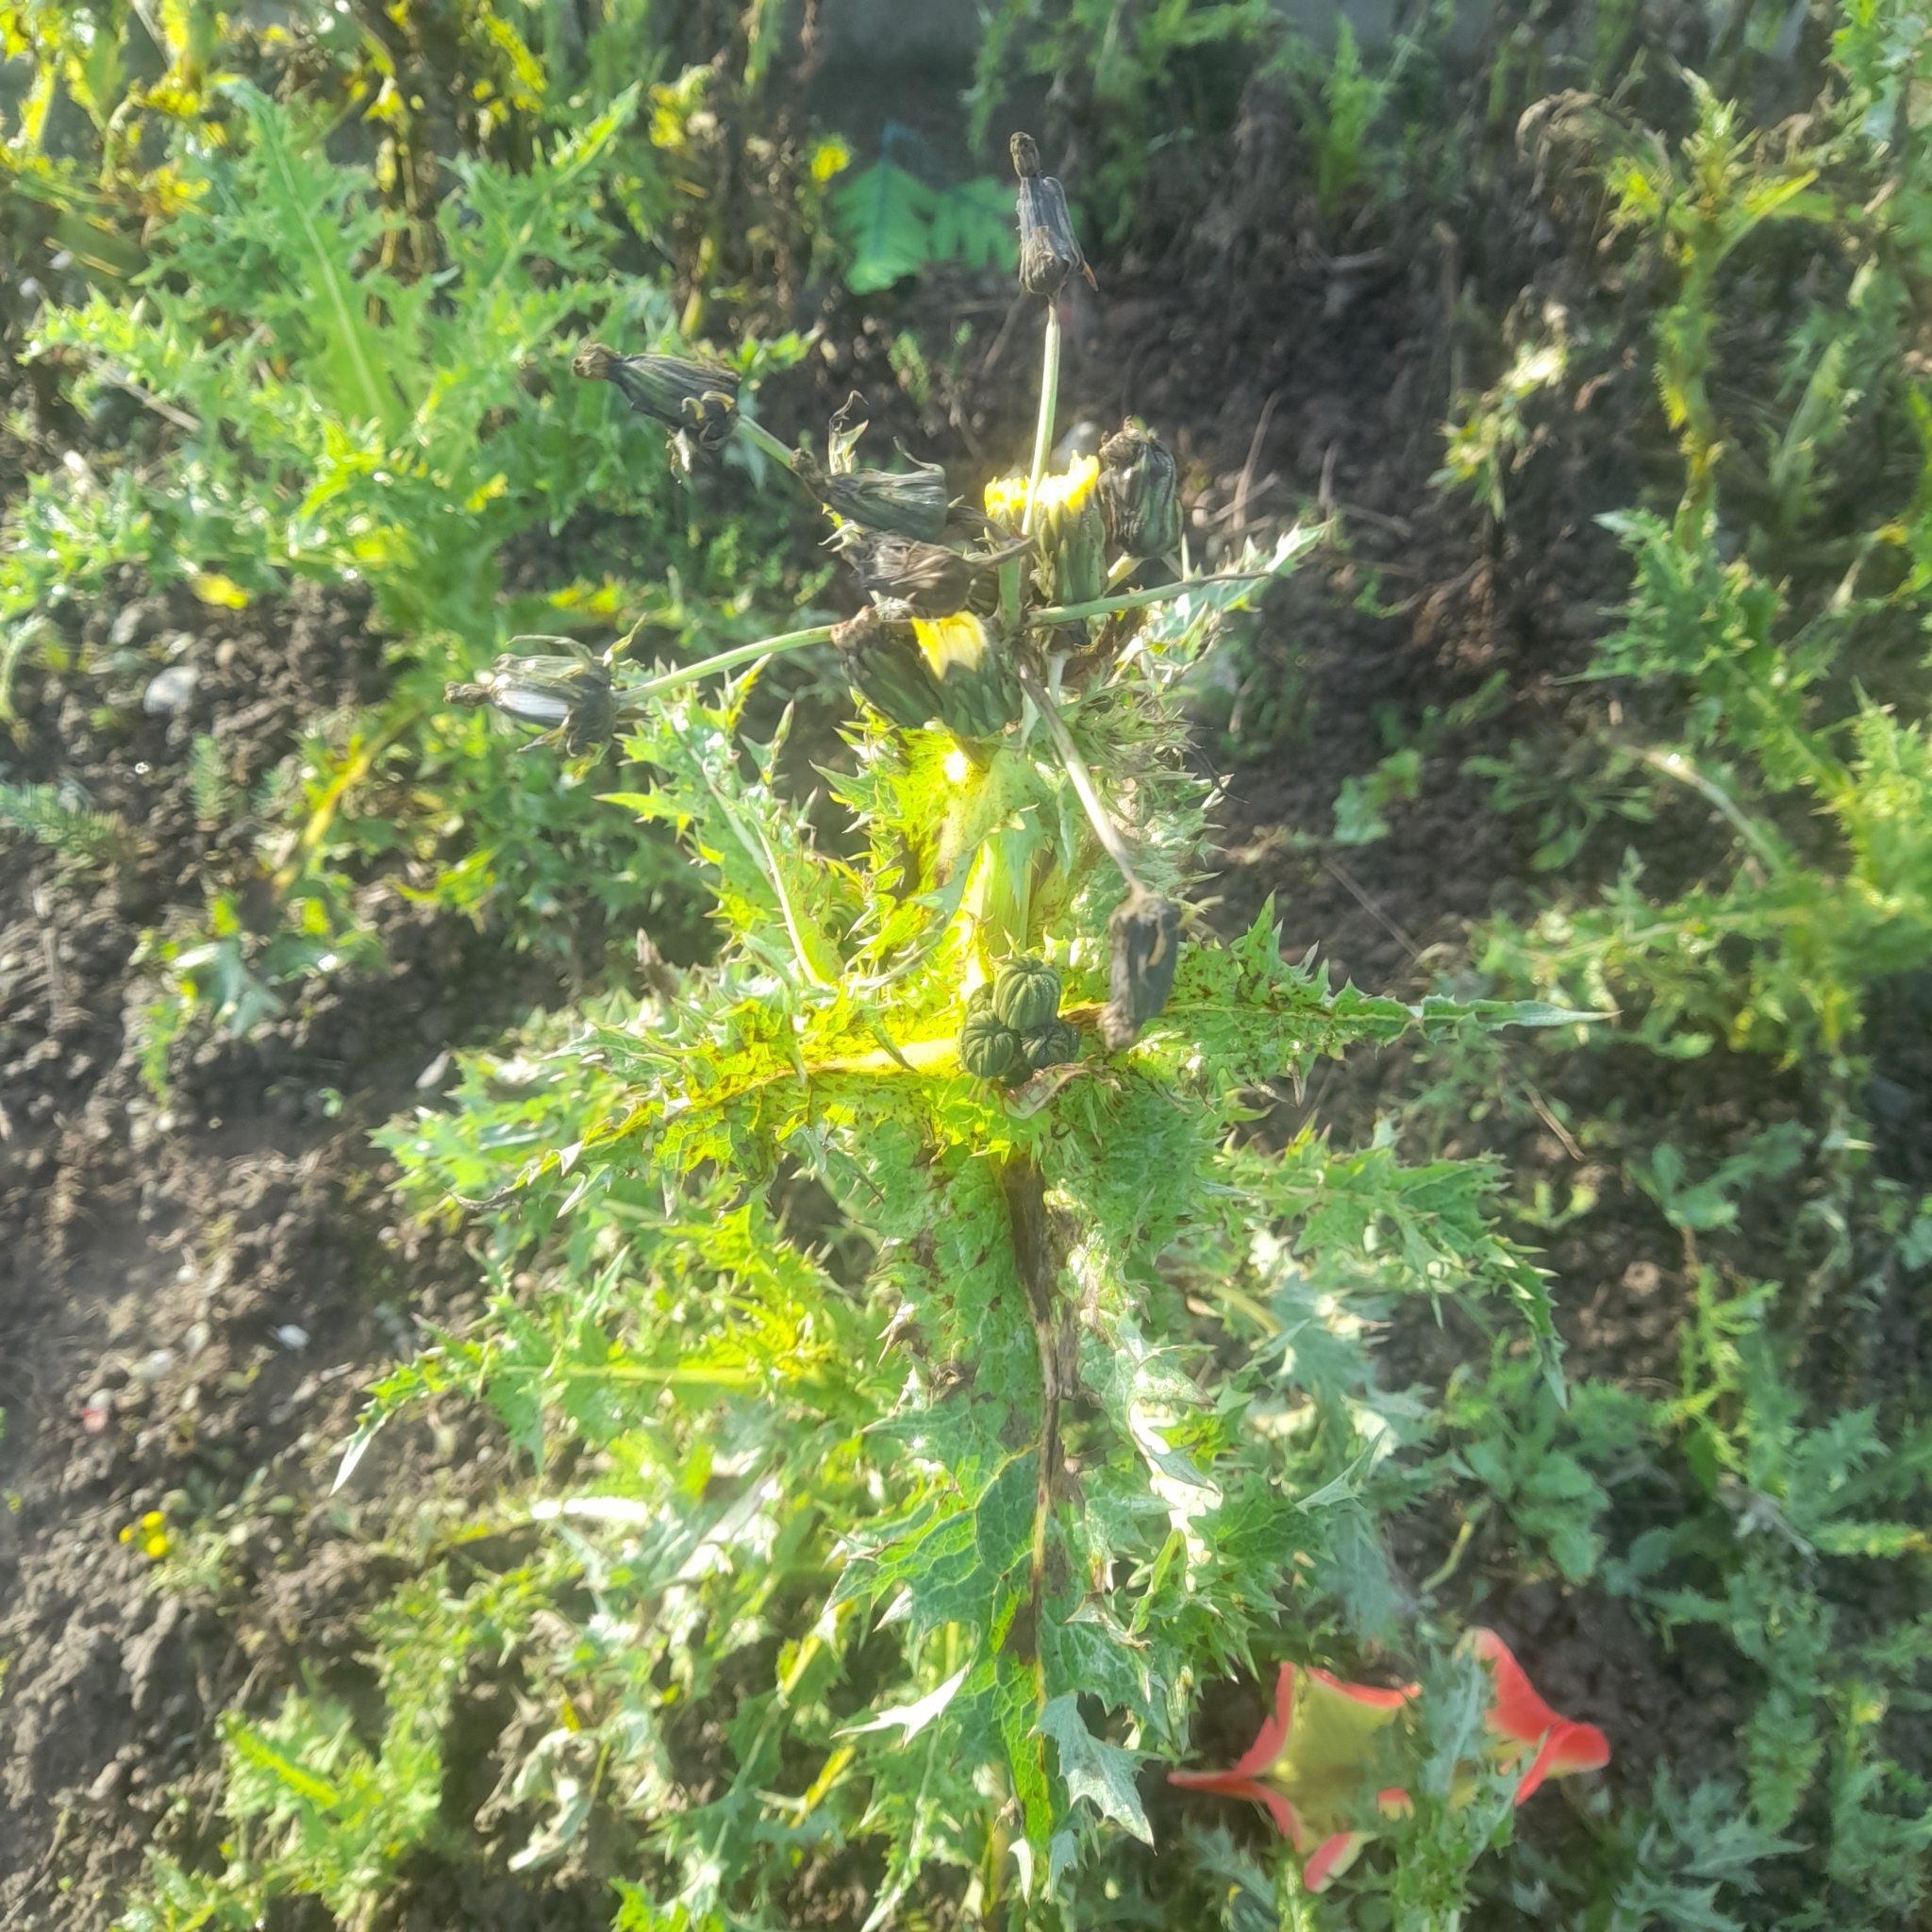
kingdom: Plantae
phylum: Tracheophyta
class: Magnoliopsida
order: Asterales
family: Asteraceae
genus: Sonchus
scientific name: Sonchus asper
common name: Prickly sow-thistle
